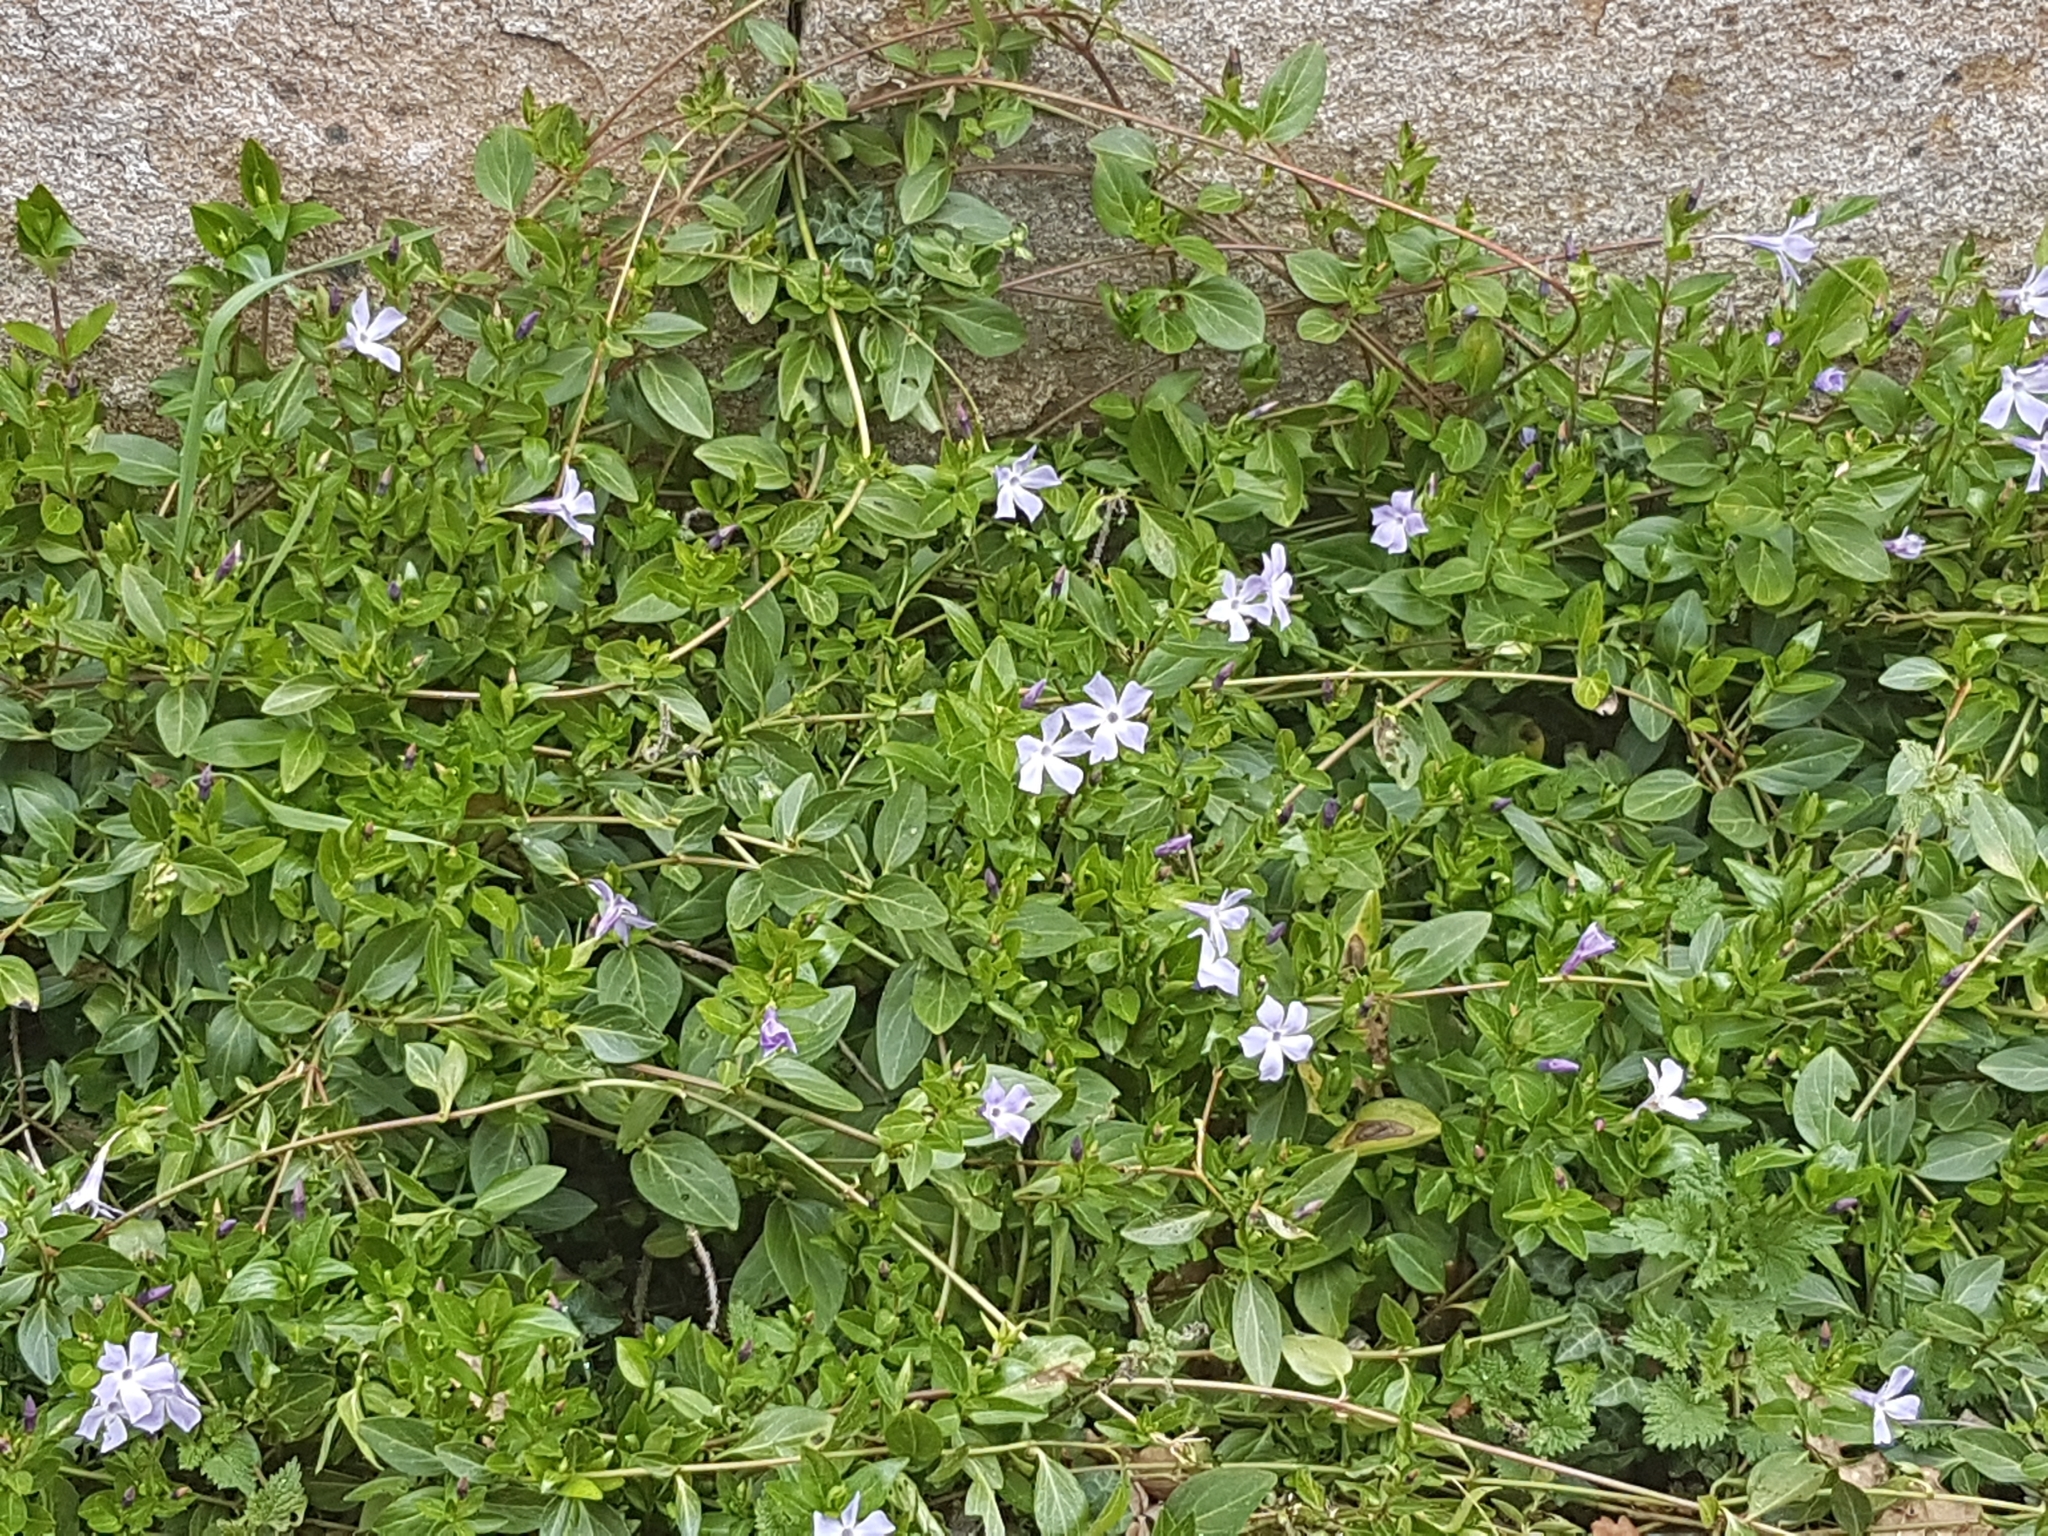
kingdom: Plantae
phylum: Tracheophyta
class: Magnoliopsida
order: Gentianales
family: Apocynaceae
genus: Vinca
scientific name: Vinca difformis
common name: Intermediate periwinkle
